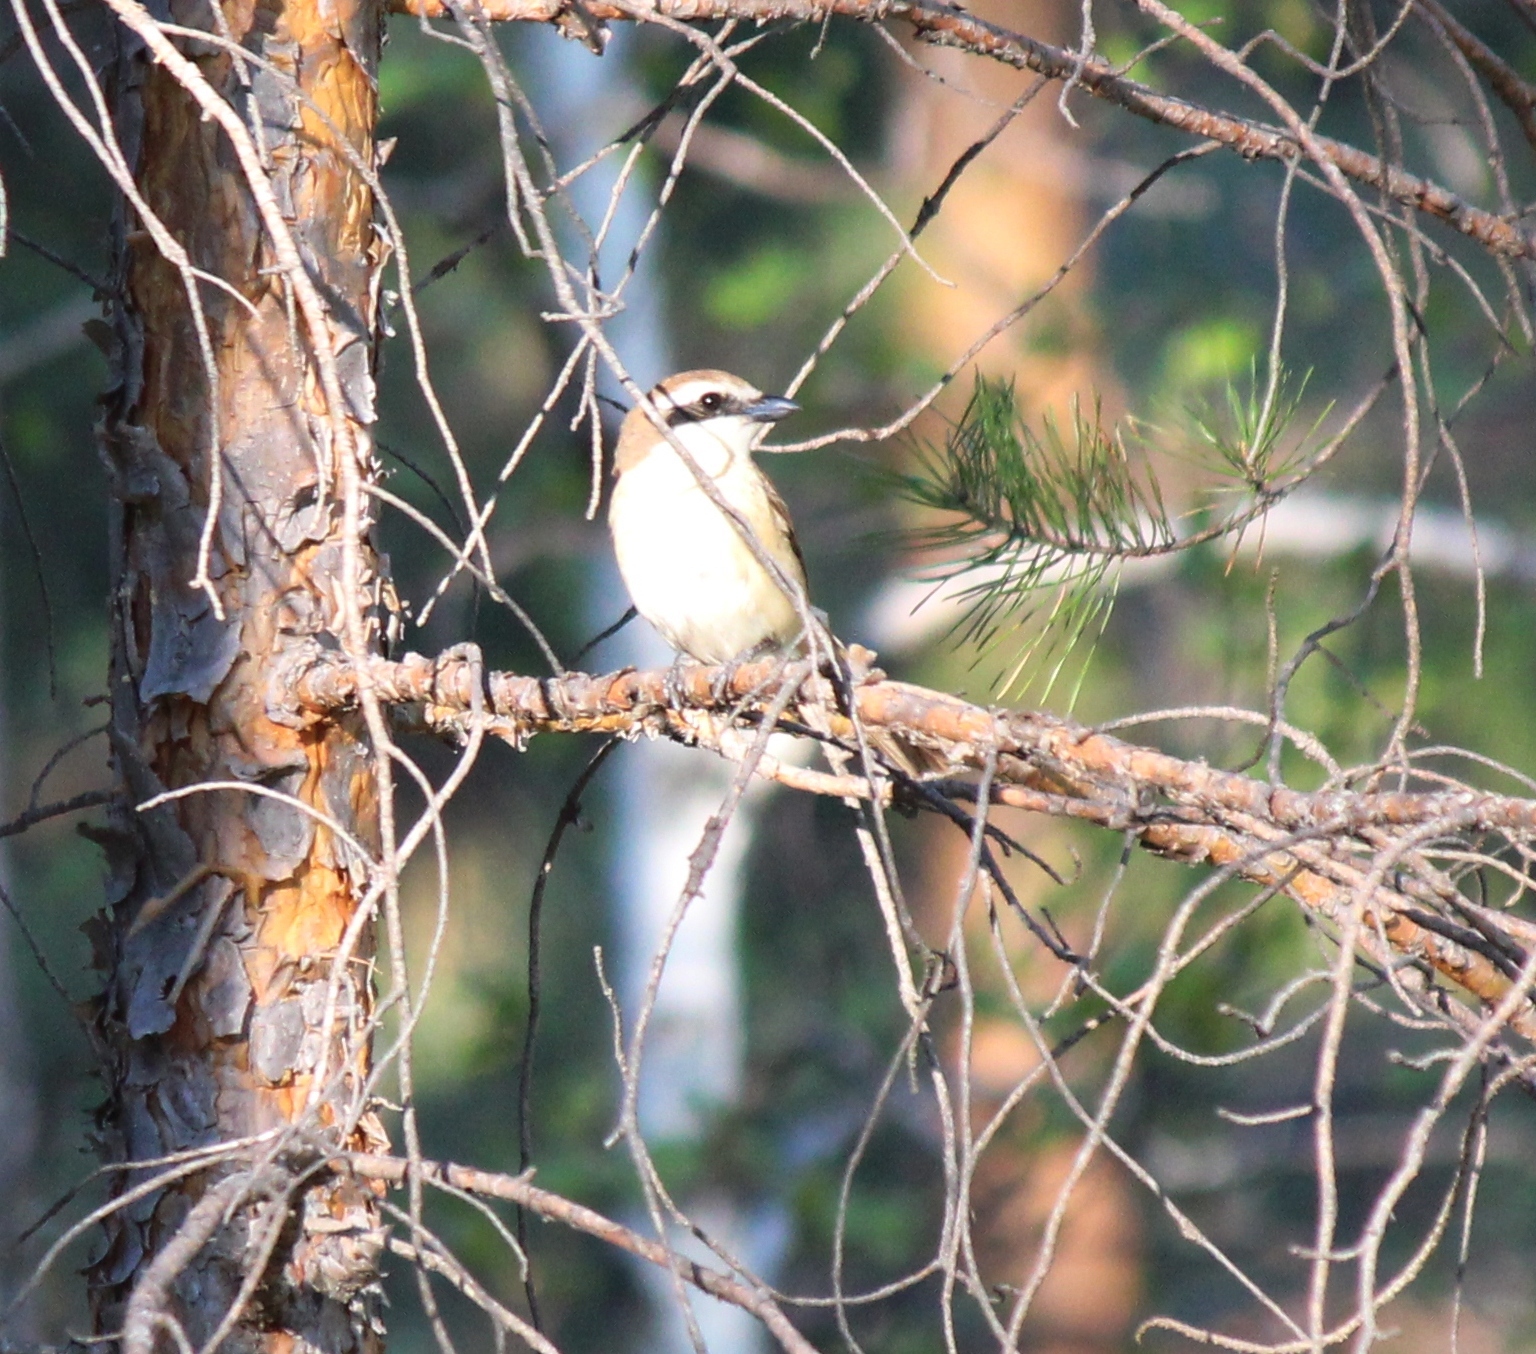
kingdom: Animalia
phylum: Chordata
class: Aves
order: Passeriformes
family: Laniidae
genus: Lanius
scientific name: Lanius cristatus
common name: Brown shrike
